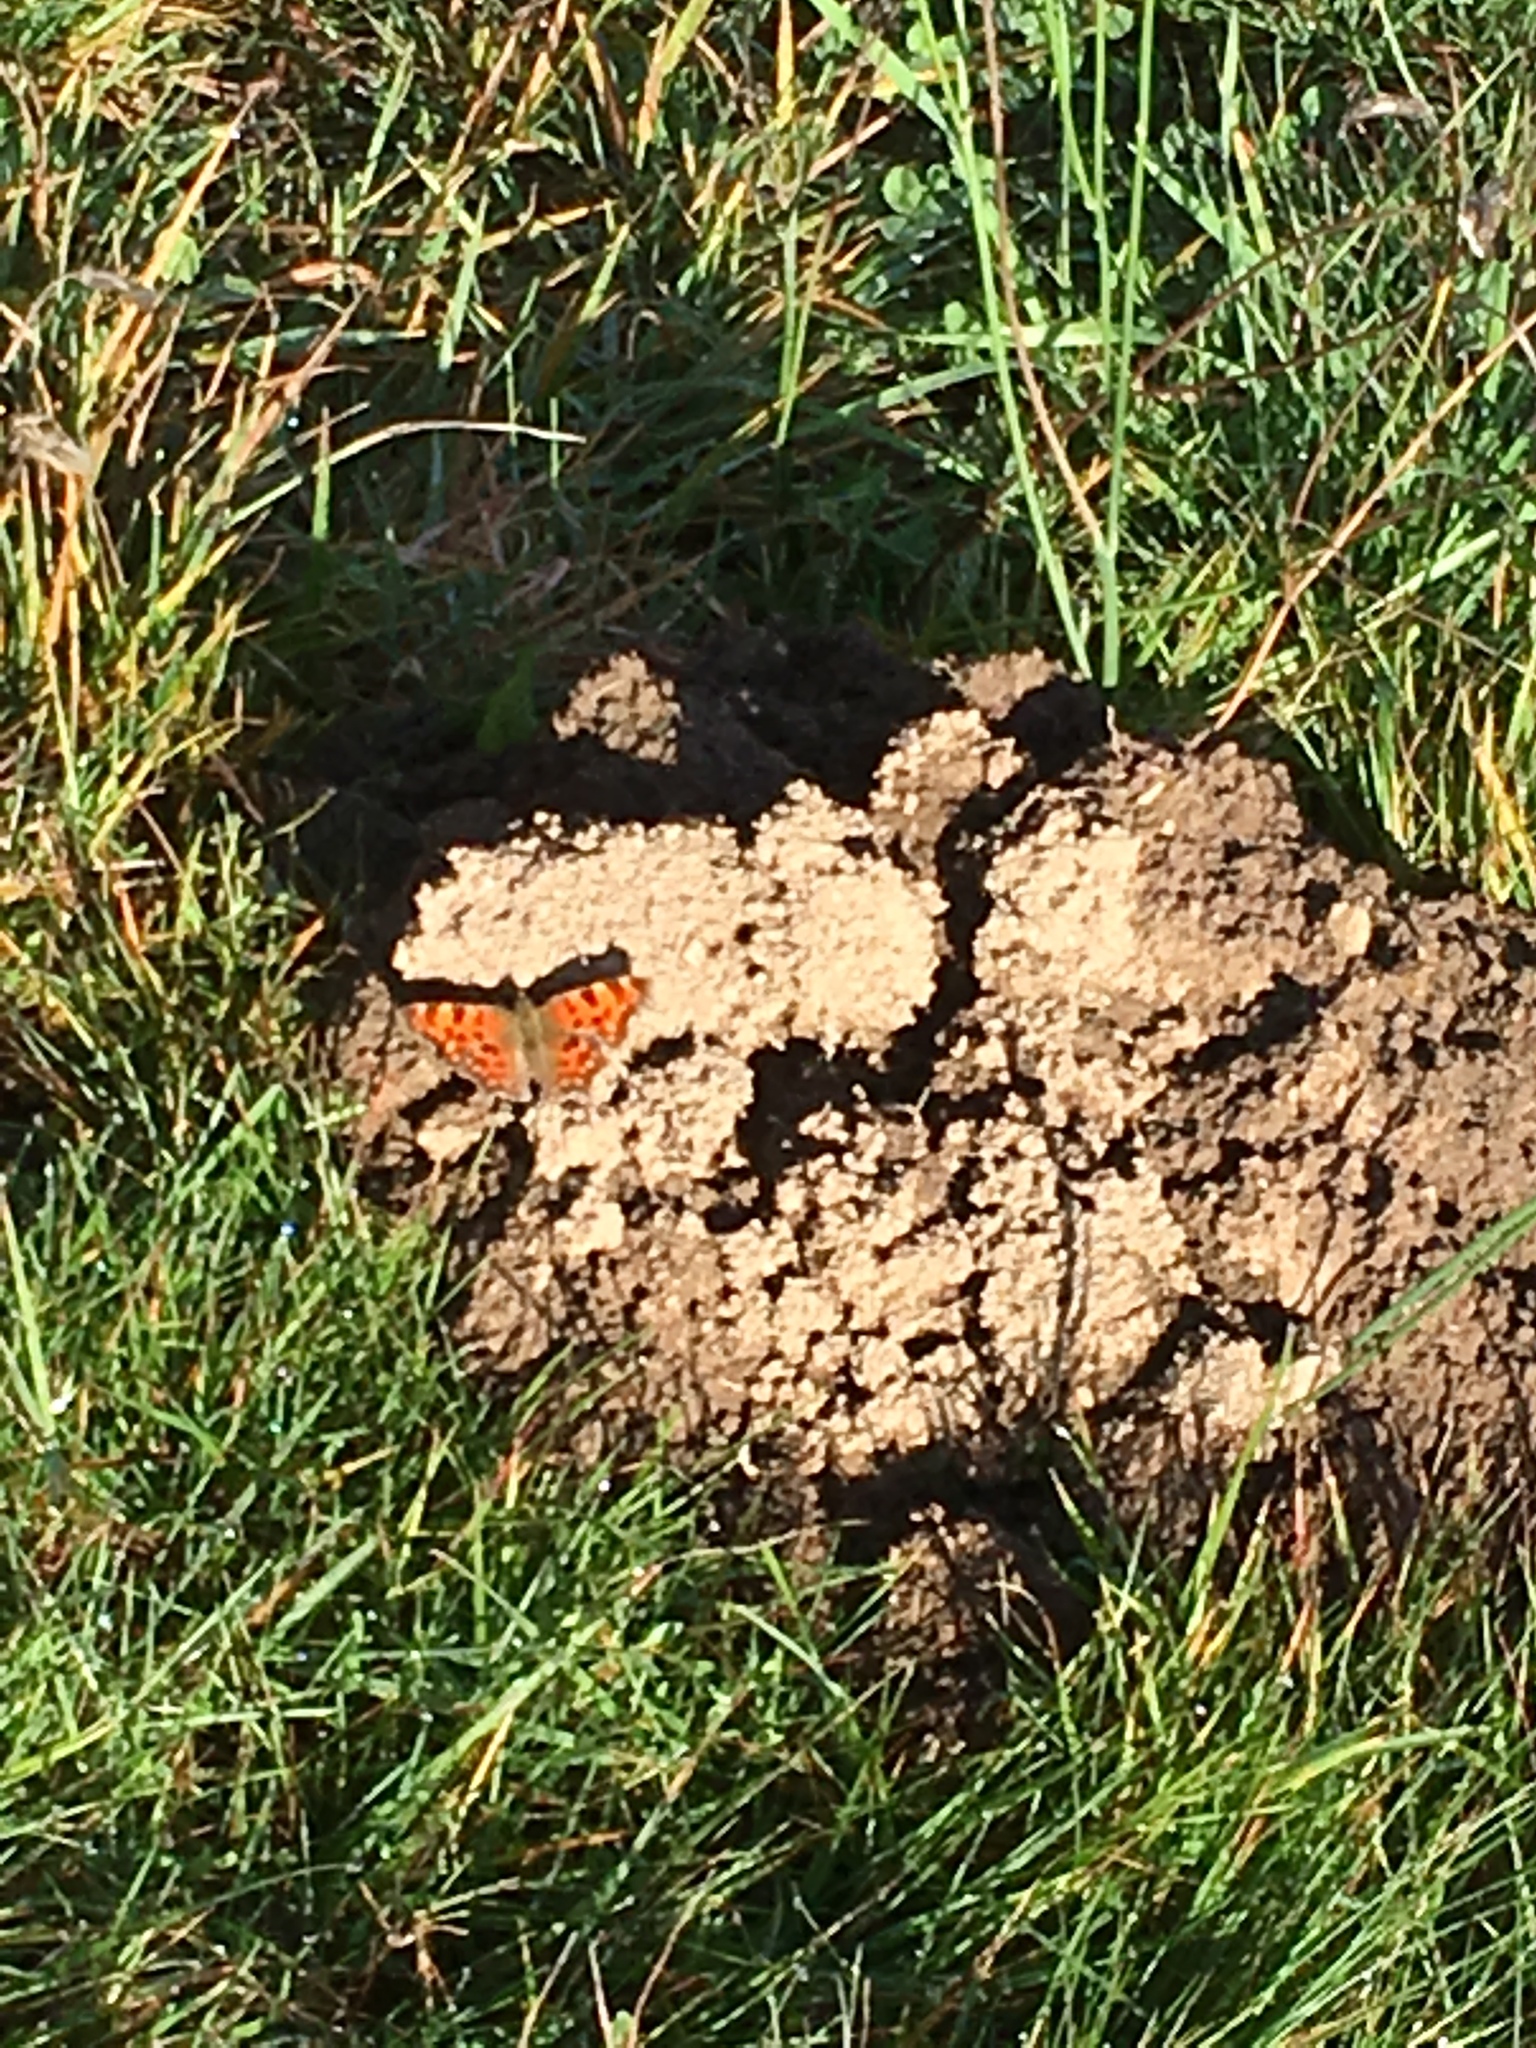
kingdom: Animalia
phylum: Arthropoda
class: Insecta
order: Lepidoptera
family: Nymphalidae
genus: Polygonia
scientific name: Polygonia c-album
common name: Comma
